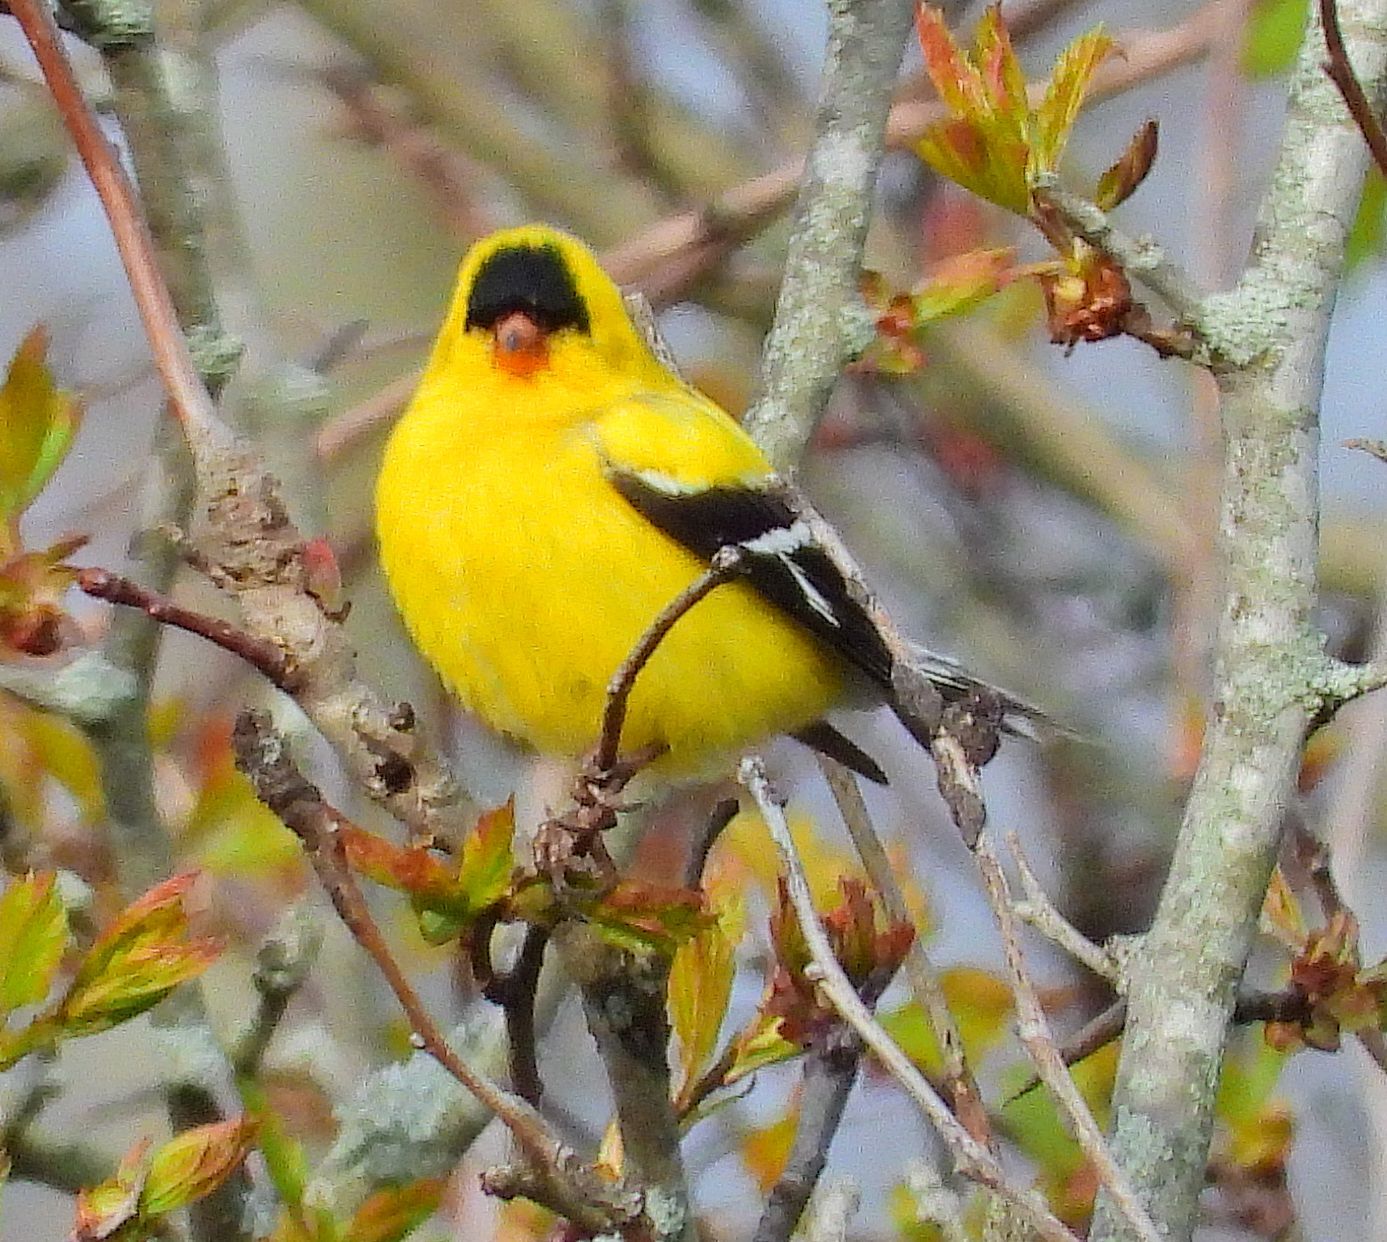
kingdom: Animalia
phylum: Chordata
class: Aves
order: Passeriformes
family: Fringillidae
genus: Spinus
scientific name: Spinus tristis
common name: American goldfinch
